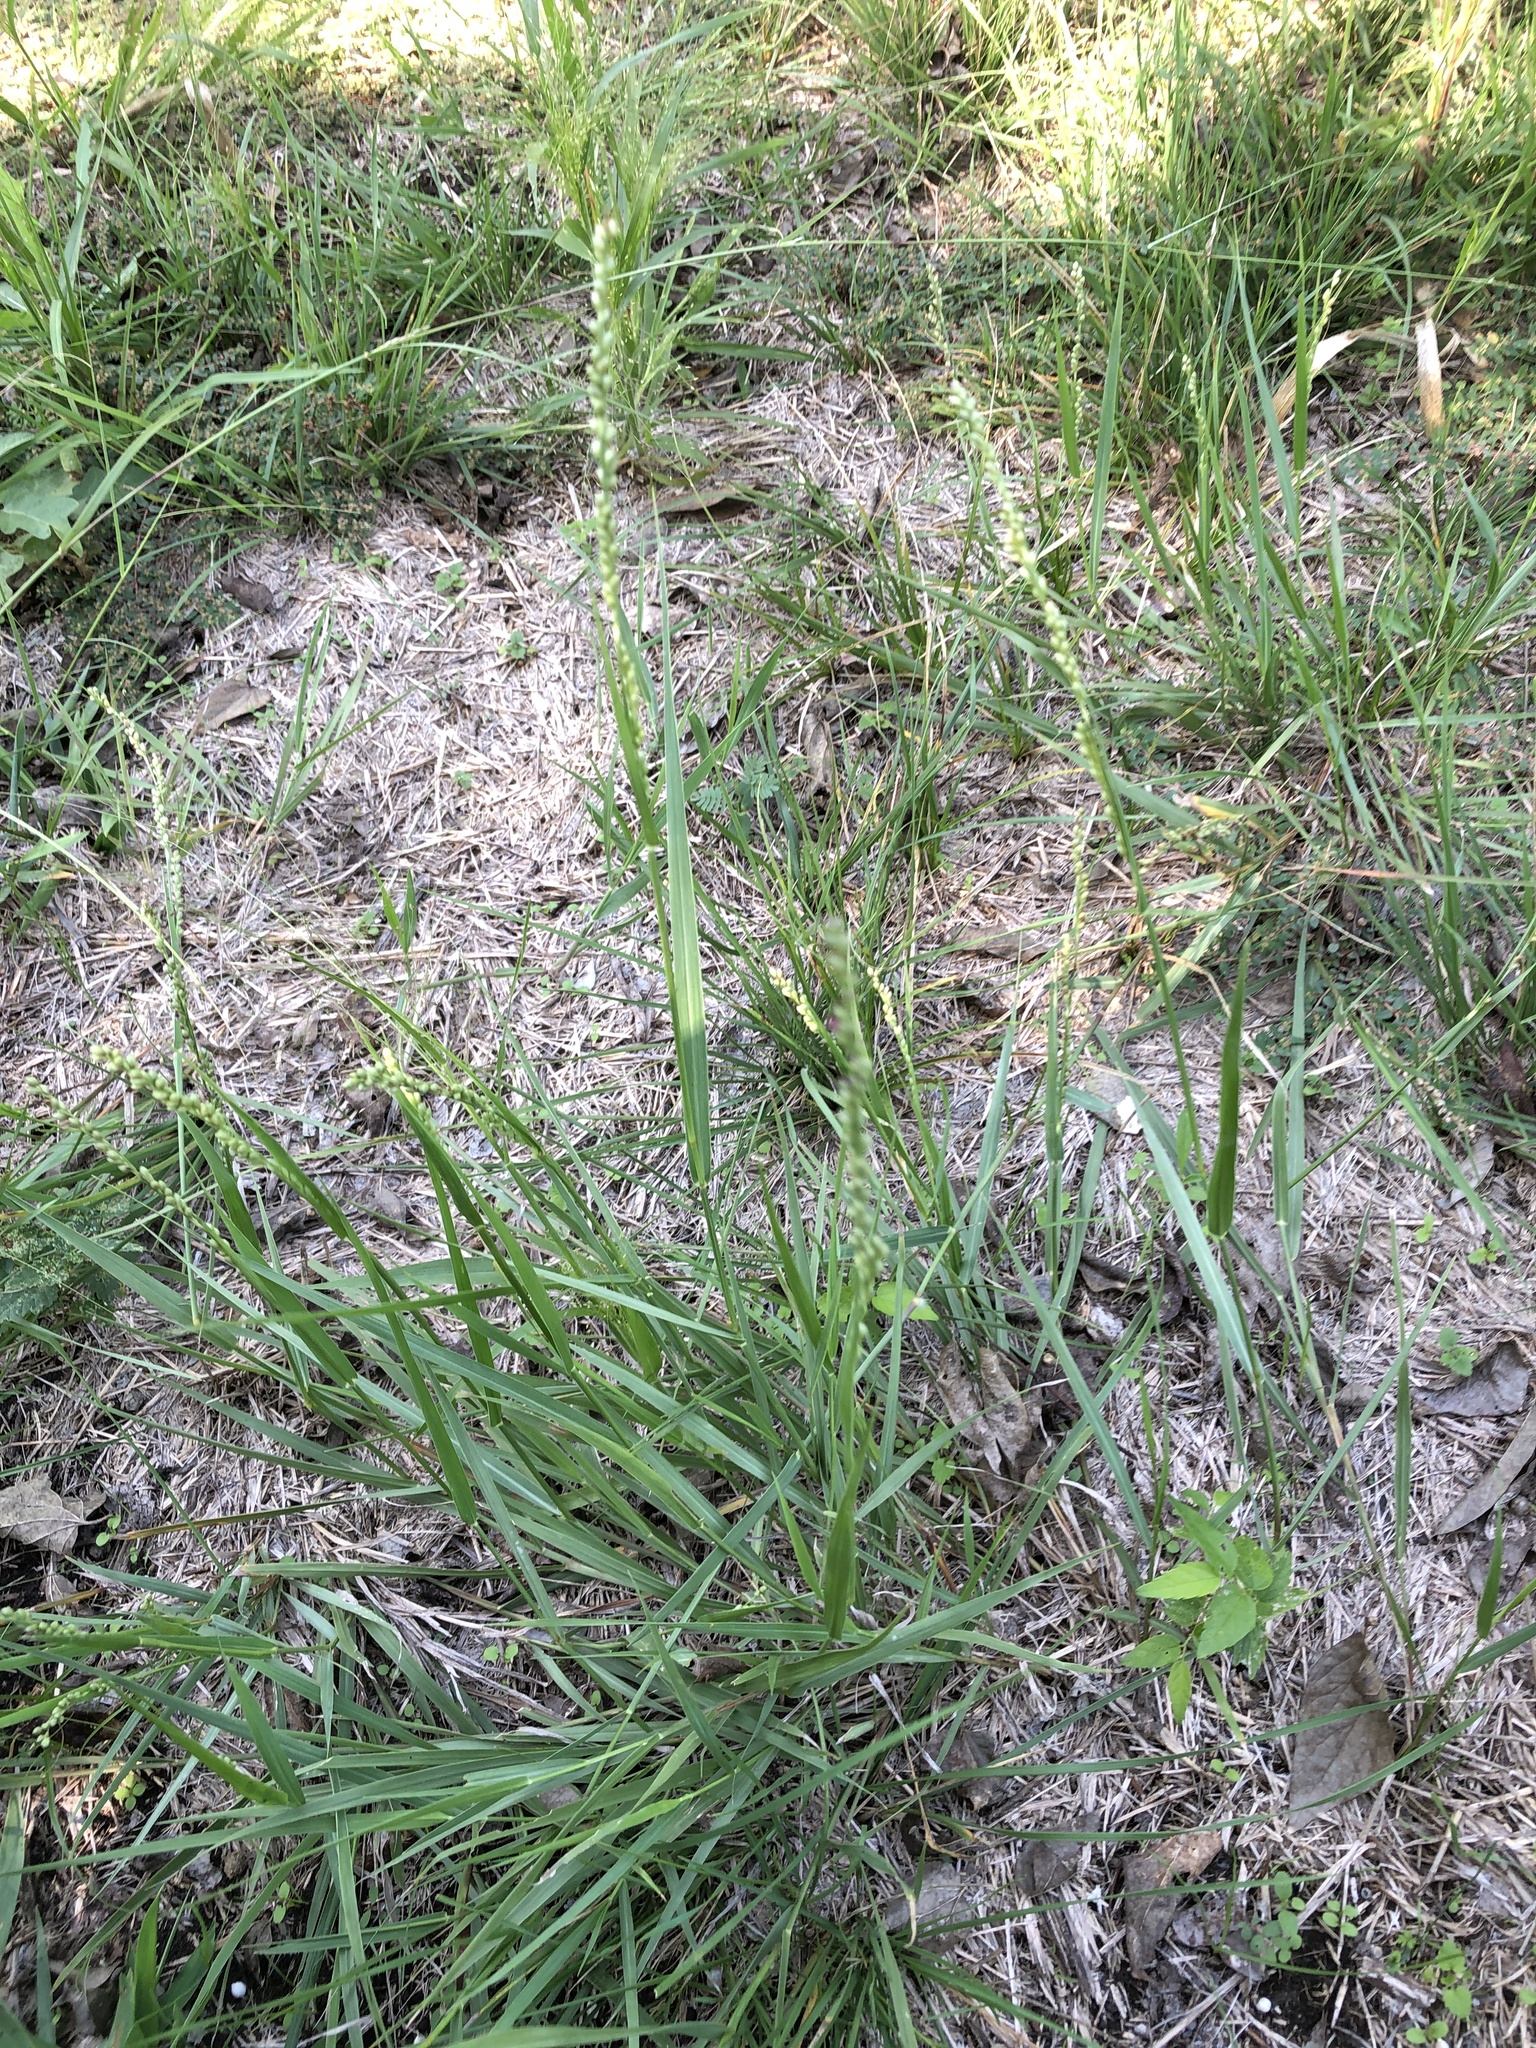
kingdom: Plantae
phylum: Tracheophyta
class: Liliopsida
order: Poales
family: Poaceae
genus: Hopia
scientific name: Hopia obtusa
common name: Vine-mesquite
